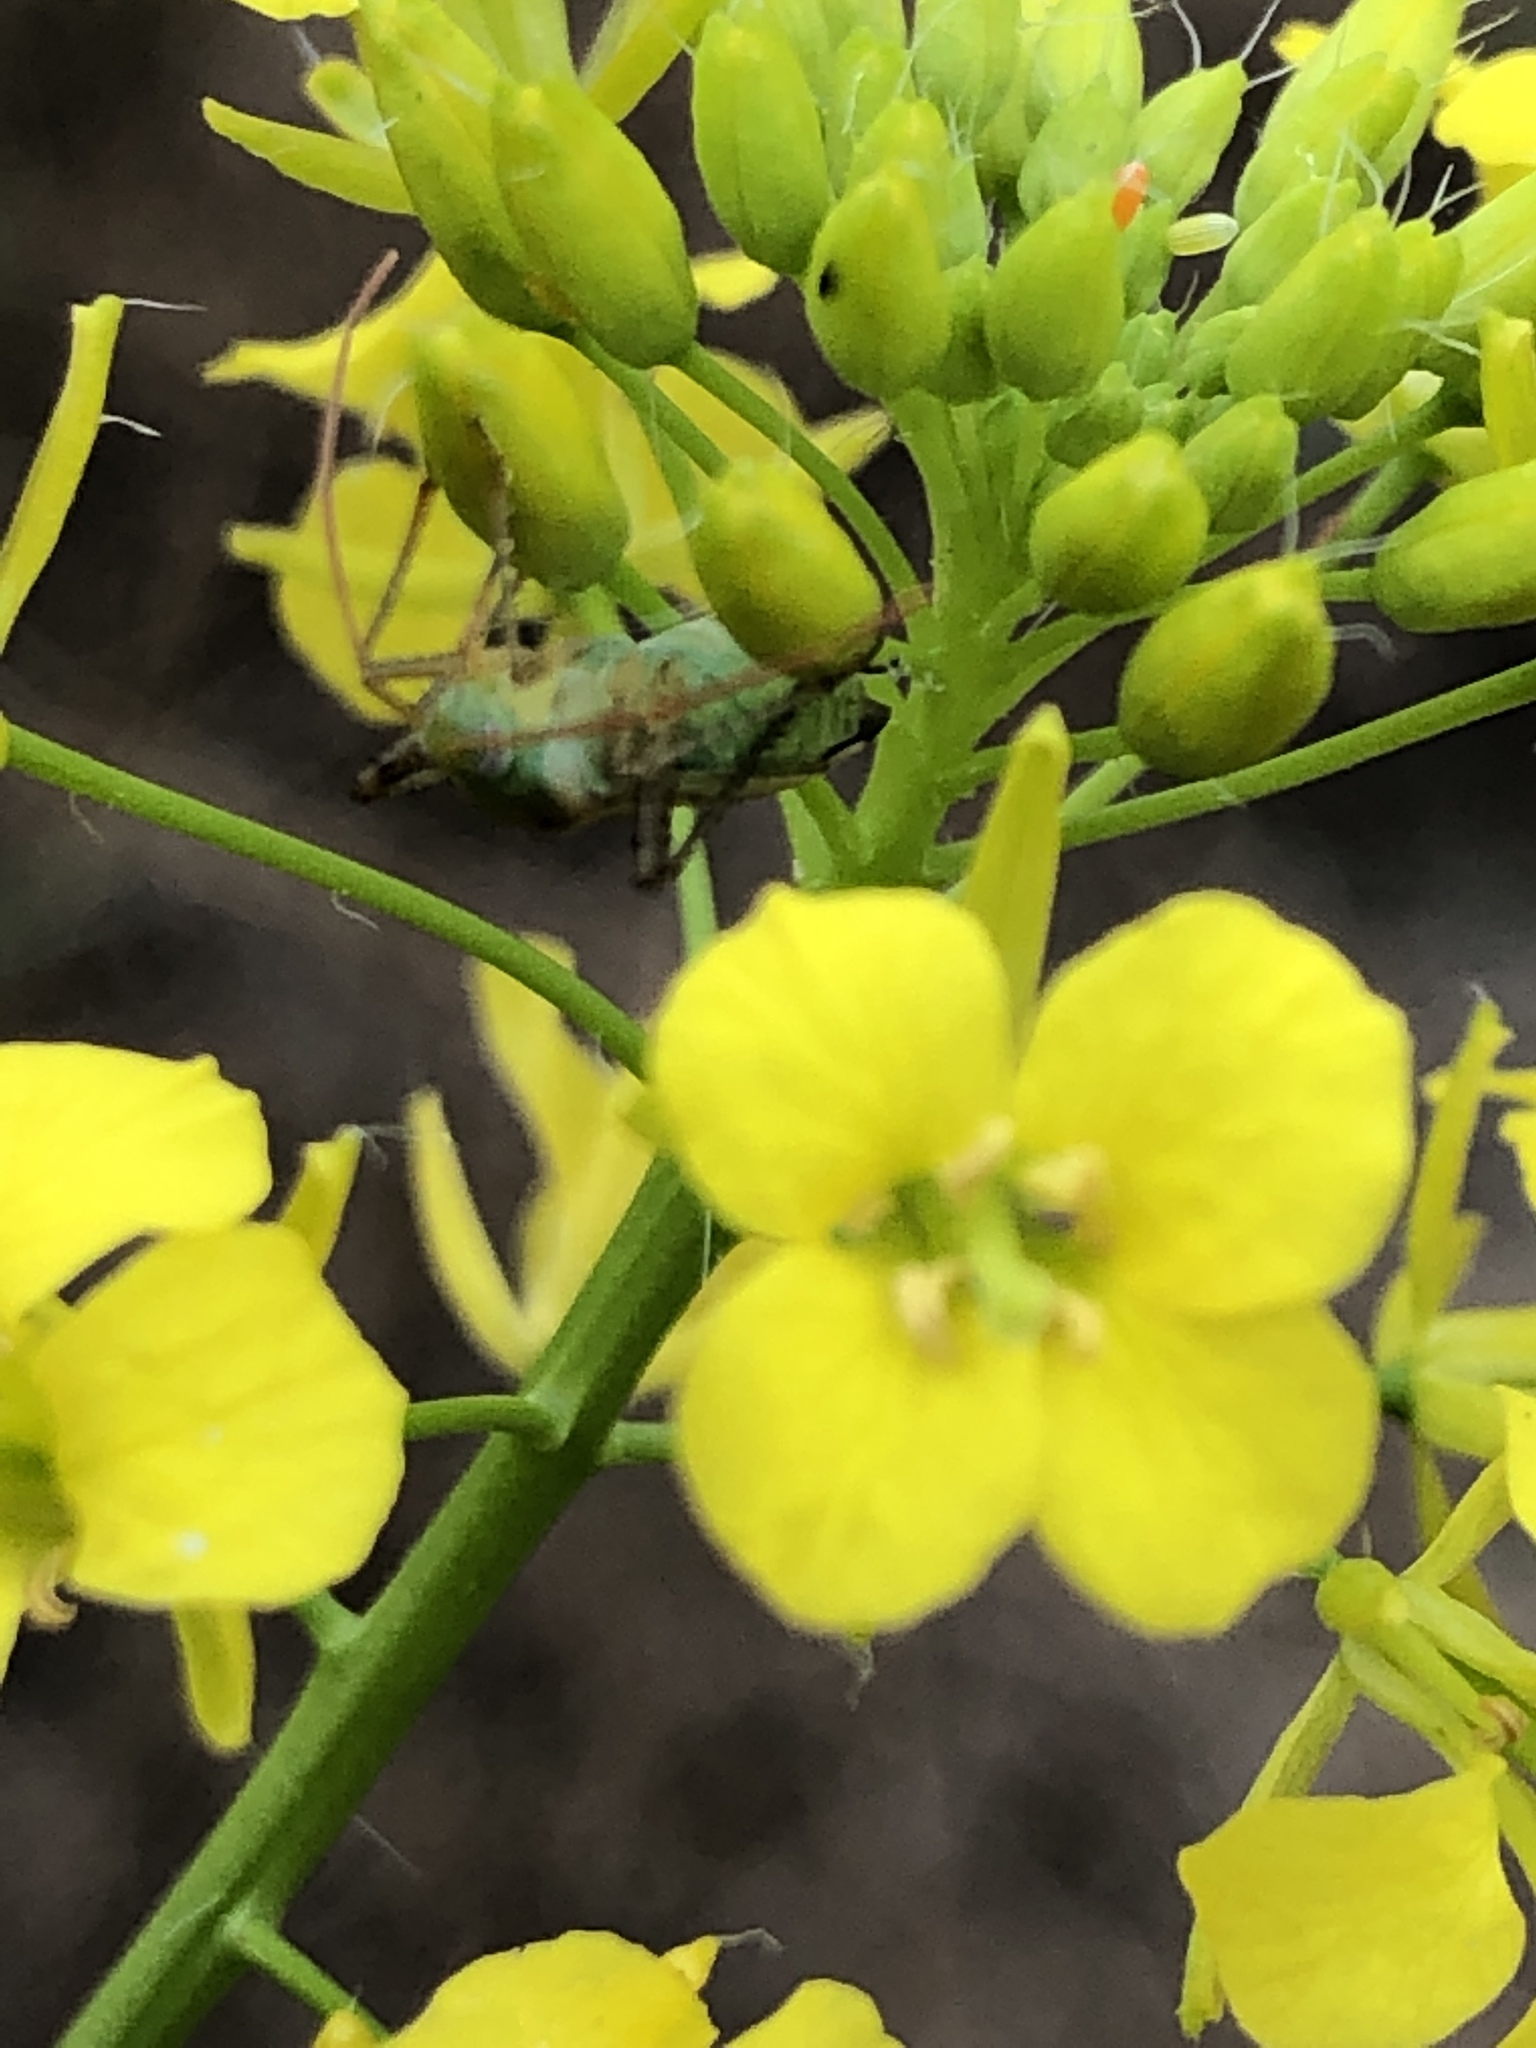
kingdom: Animalia
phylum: Arthropoda
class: Insecta
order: Hemiptera
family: Miridae
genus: Adelphocoris
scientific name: Adelphocoris lineolatus
